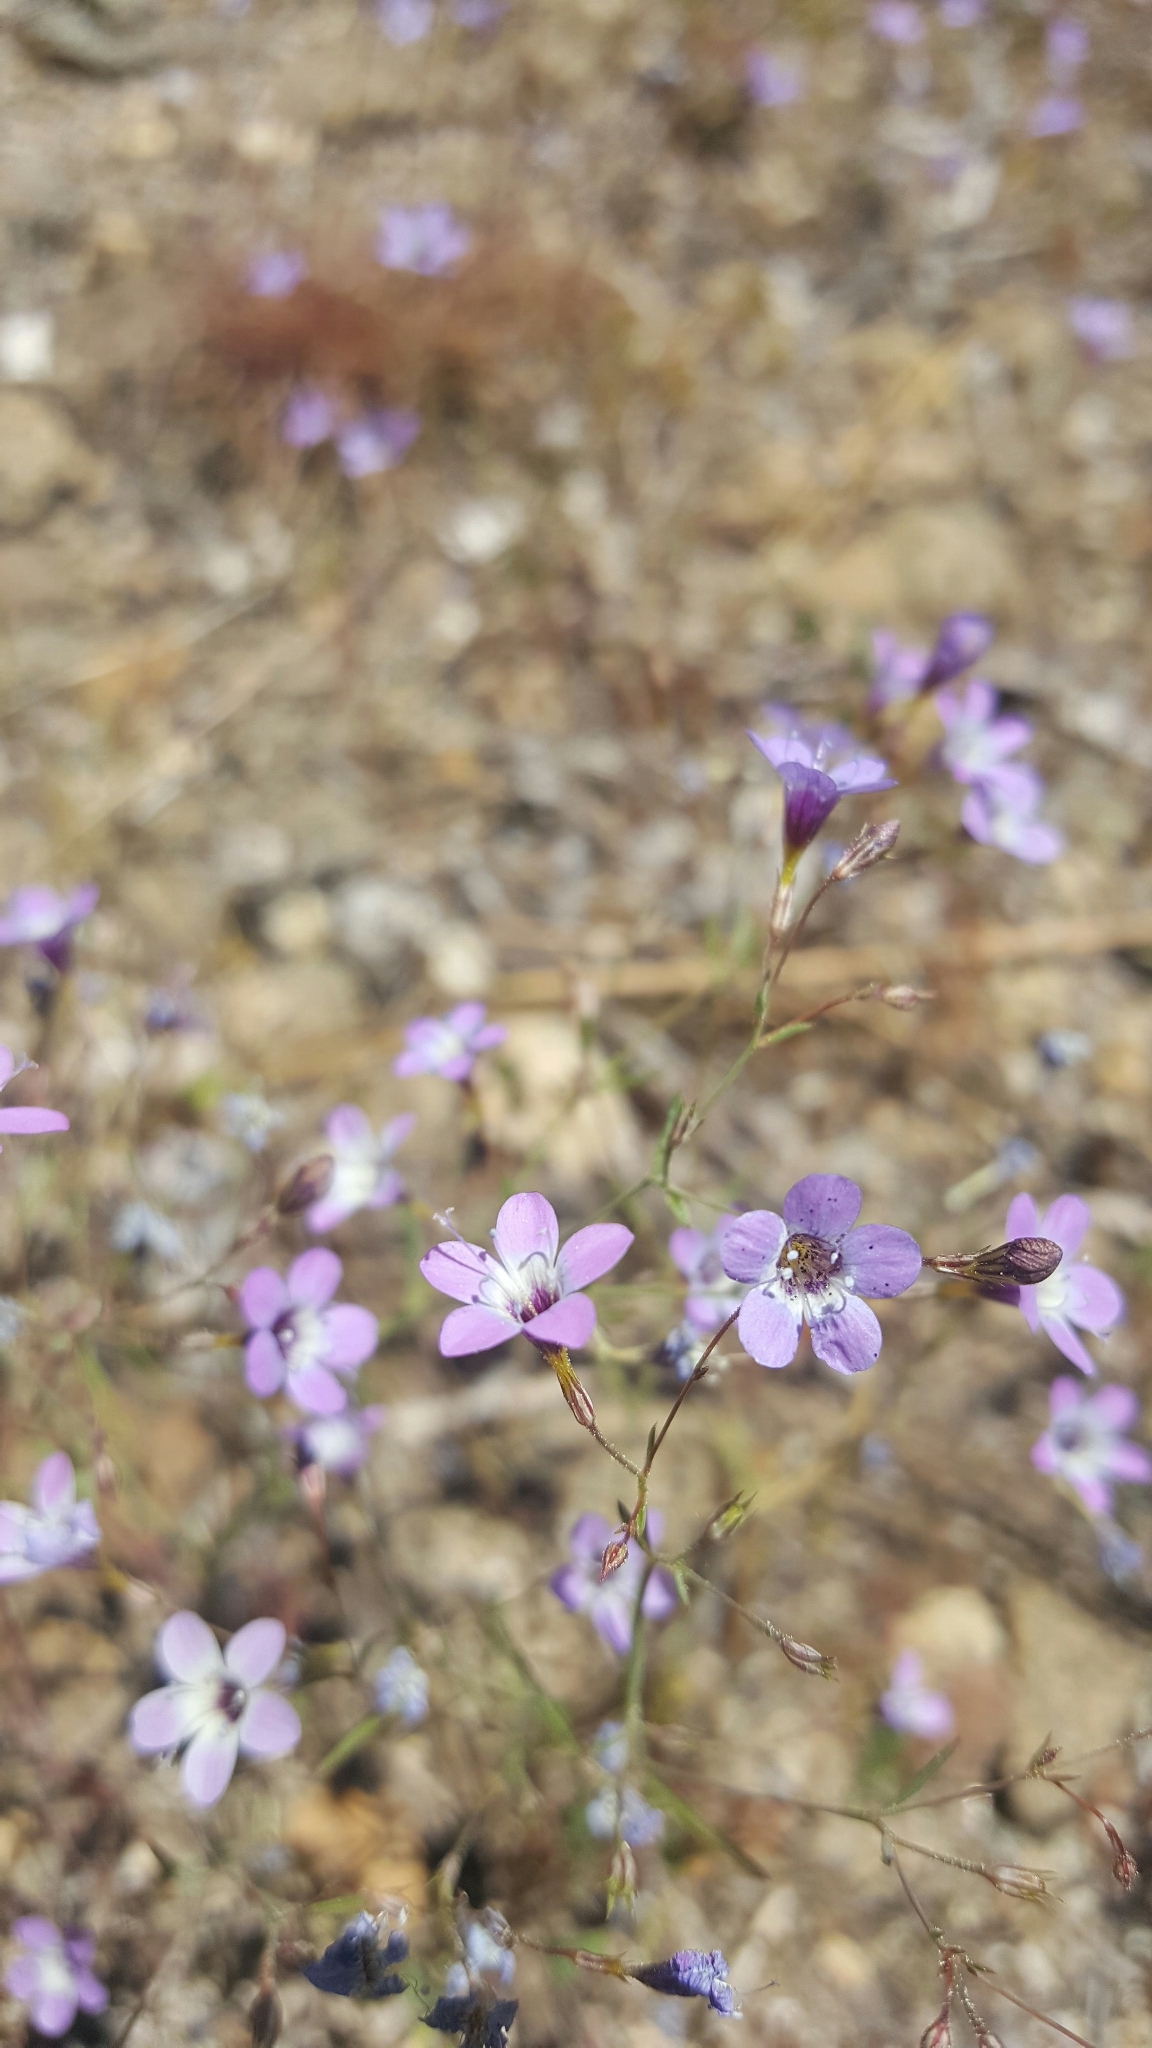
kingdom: Plantae
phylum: Tracheophyta
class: Magnoliopsida
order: Ericales
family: Polemoniaceae
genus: Navarretia
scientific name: Navarretia leptalea
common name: Bridges' pincushionplant
